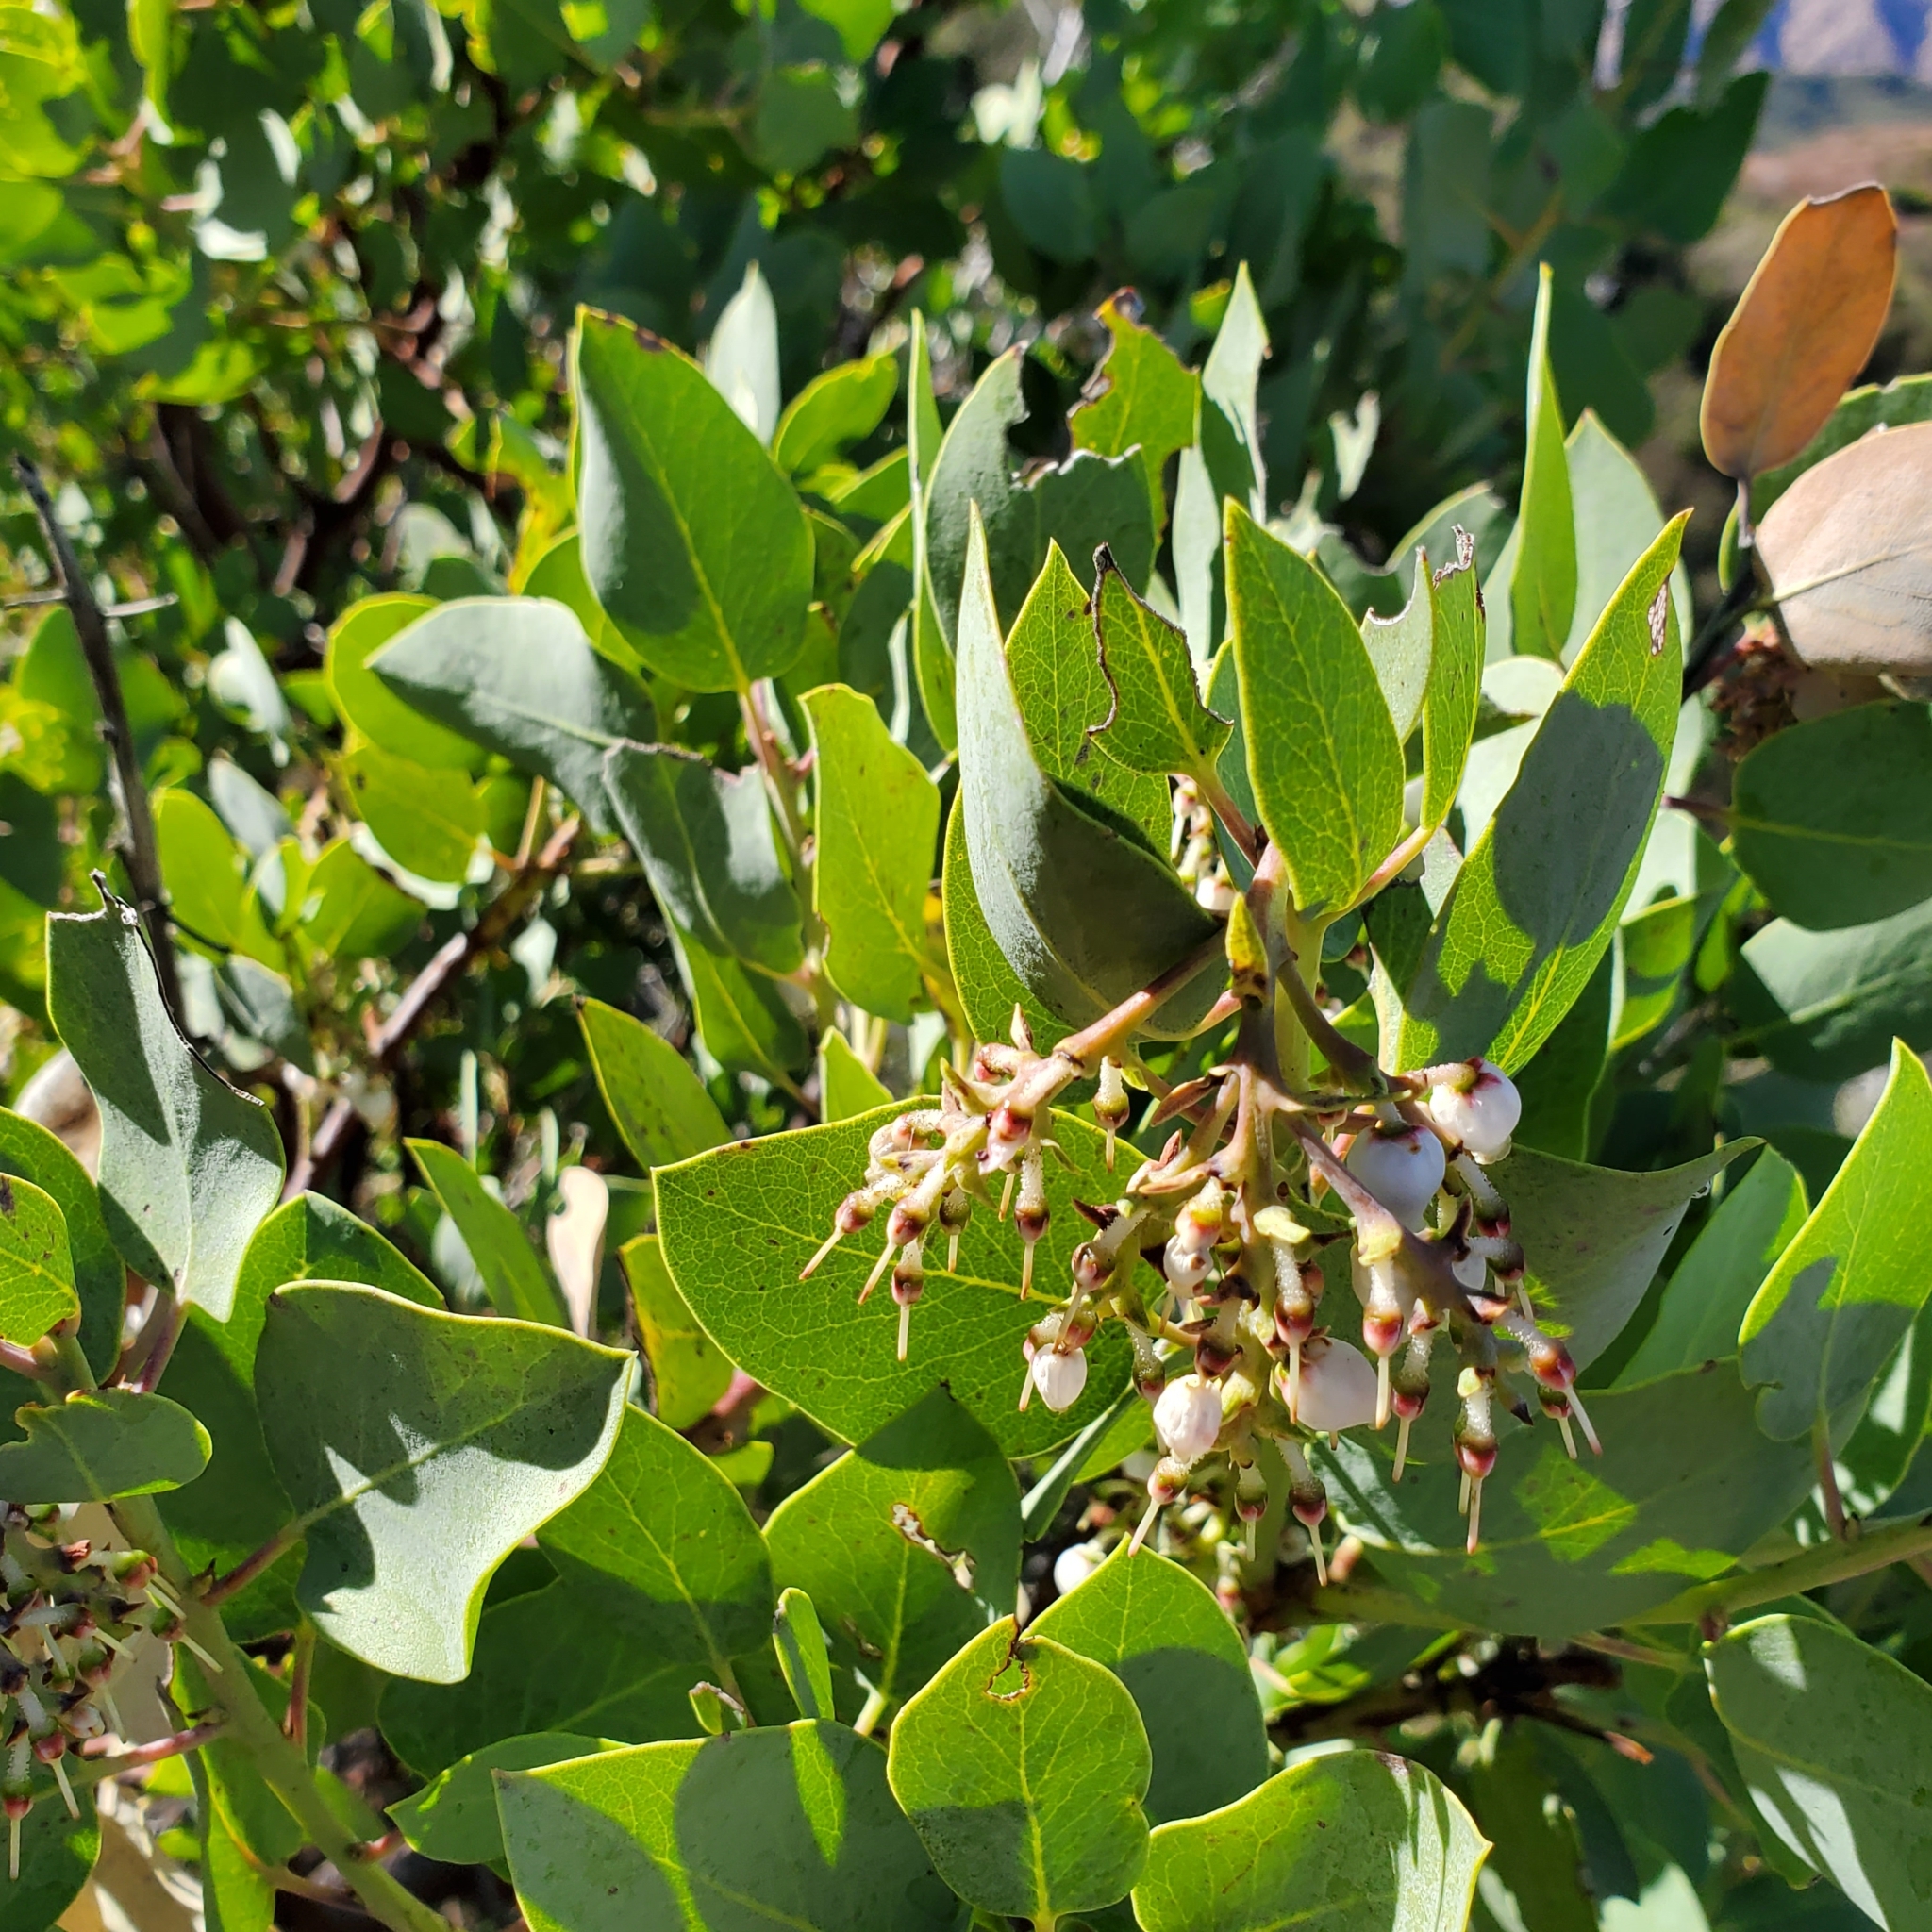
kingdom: Plantae
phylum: Tracheophyta
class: Magnoliopsida
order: Ericales
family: Ericaceae
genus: Arctostaphylos
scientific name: Arctostaphylos glauca
